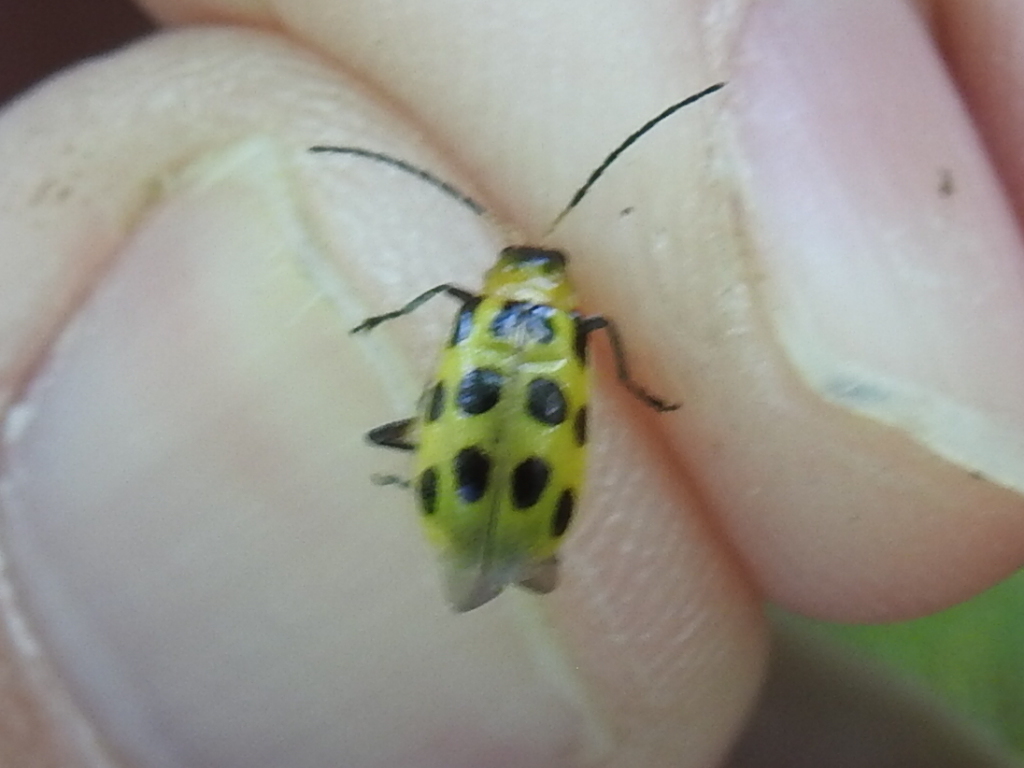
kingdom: Animalia
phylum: Arthropoda
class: Insecta
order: Coleoptera
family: Chrysomelidae
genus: Diabrotica
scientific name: Diabrotica undecimpunctata
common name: Spotted cucumber beetle
